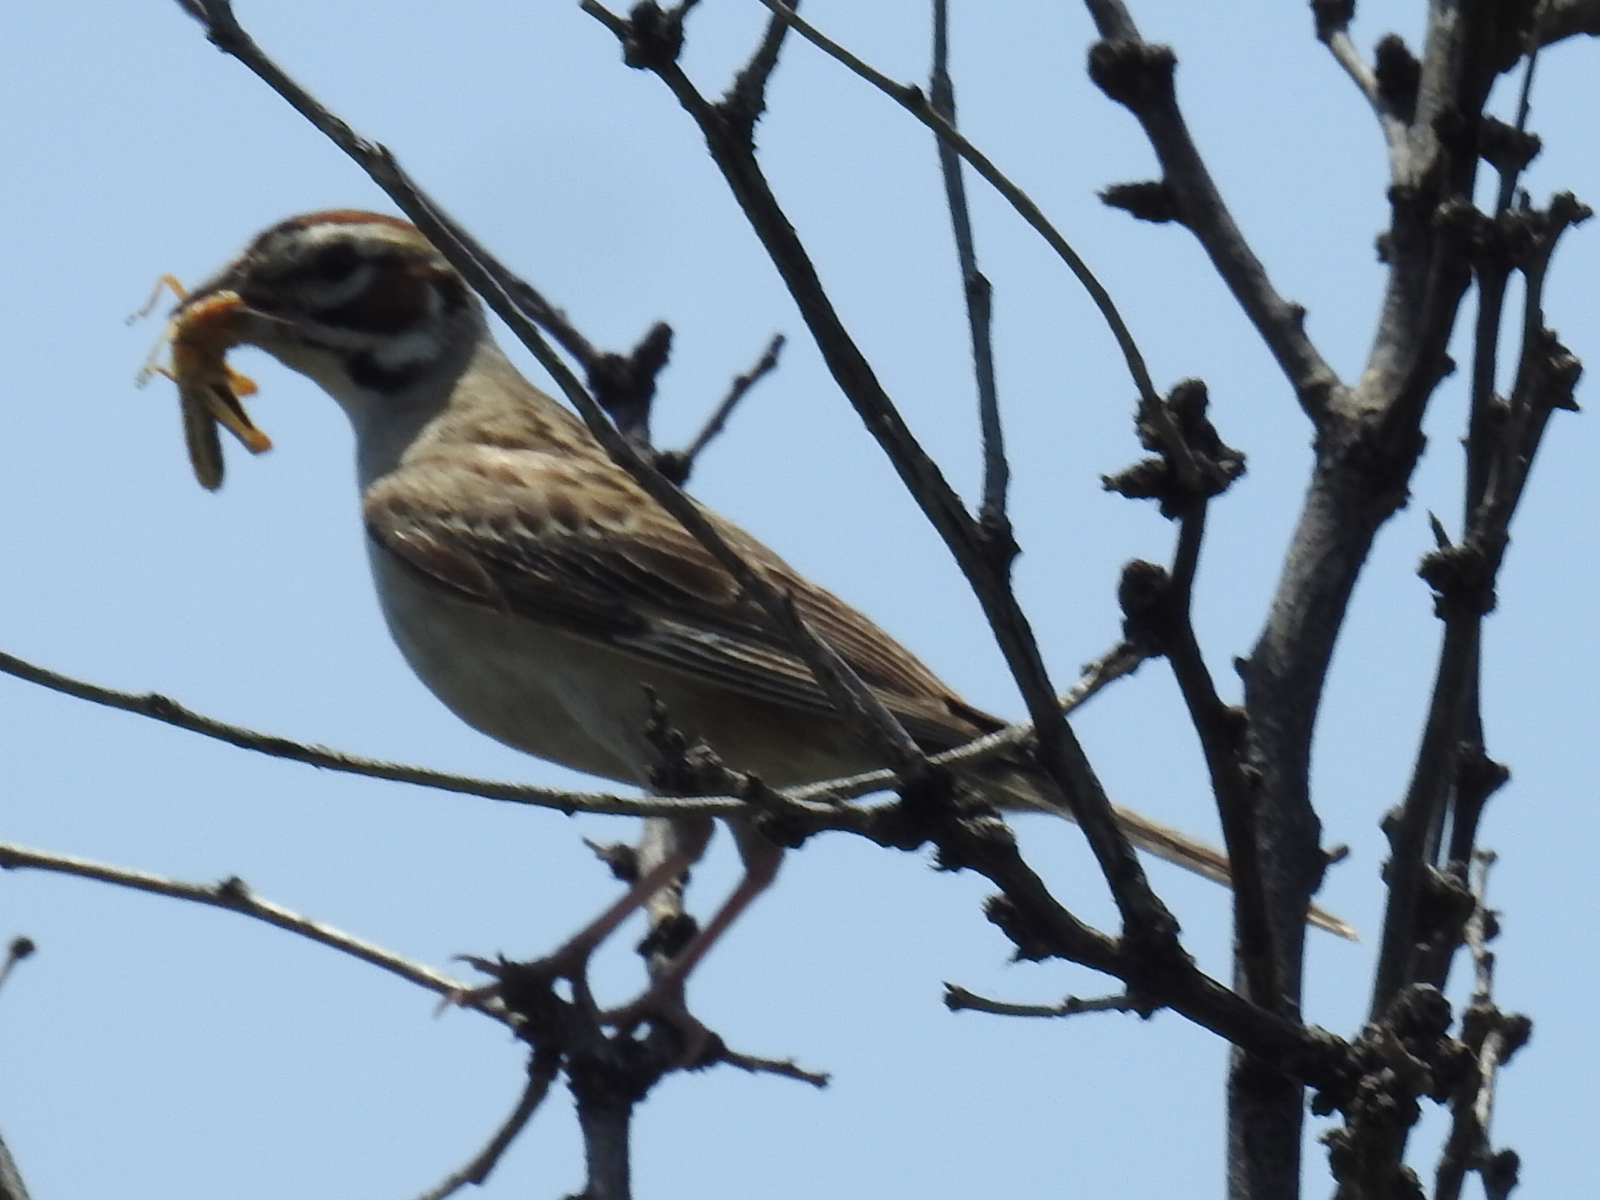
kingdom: Animalia
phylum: Chordata
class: Aves
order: Passeriformes
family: Passerellidae
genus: Chondestes
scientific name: Chondestes grammacus
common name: Lark sparrow
